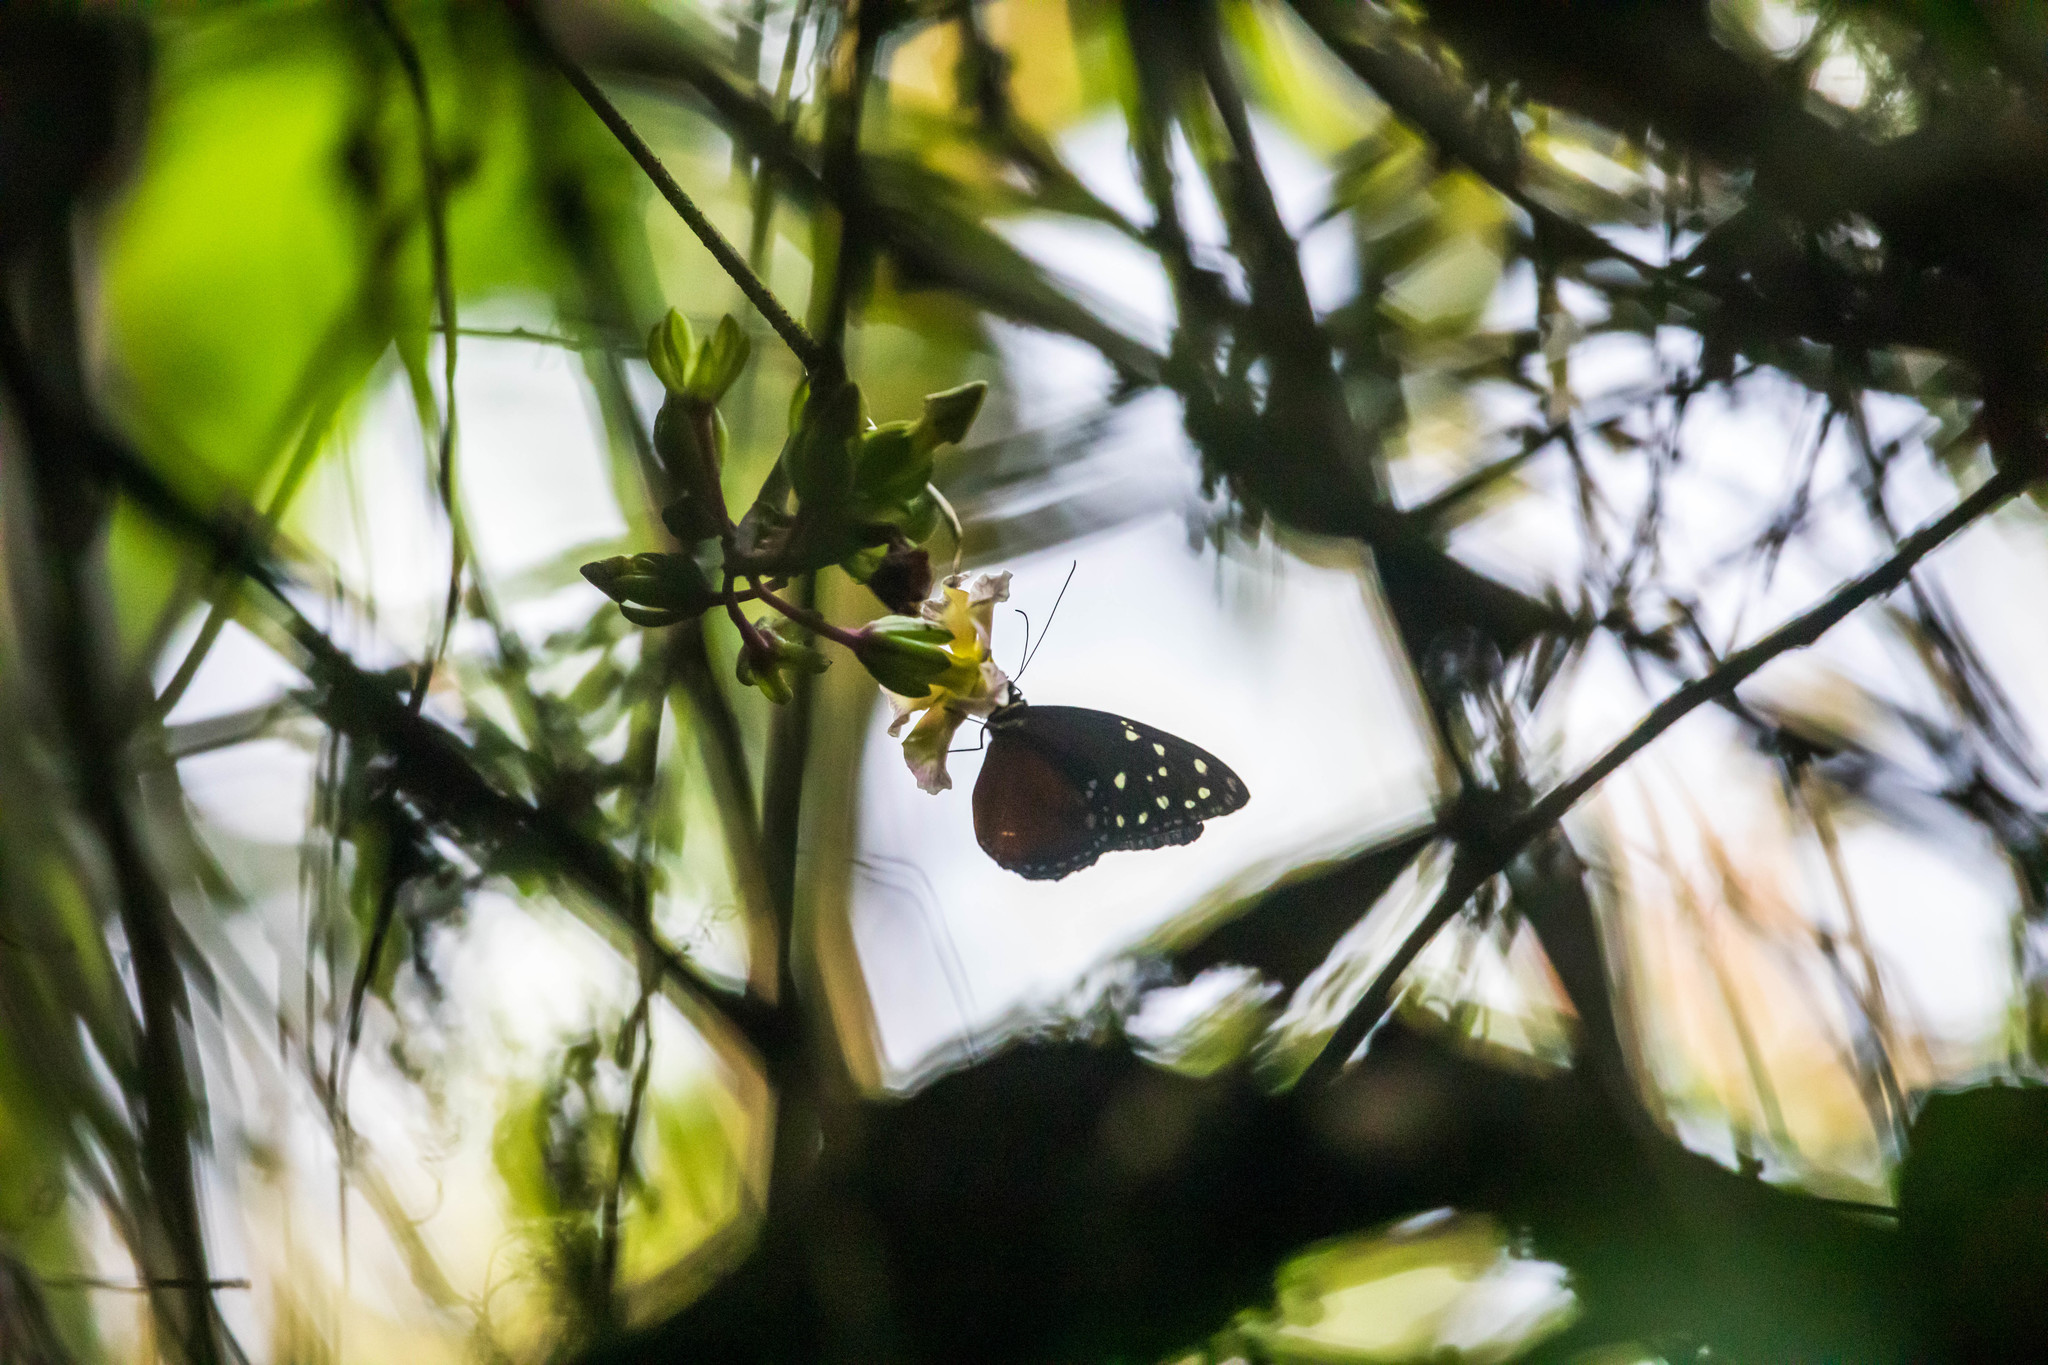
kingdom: Animalia
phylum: Arthropoda
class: Insecta
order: Lepidoptera
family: Nymphalidae
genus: Tithorea
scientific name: Tithorea tarricina
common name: Cream-spotted tigerwing
